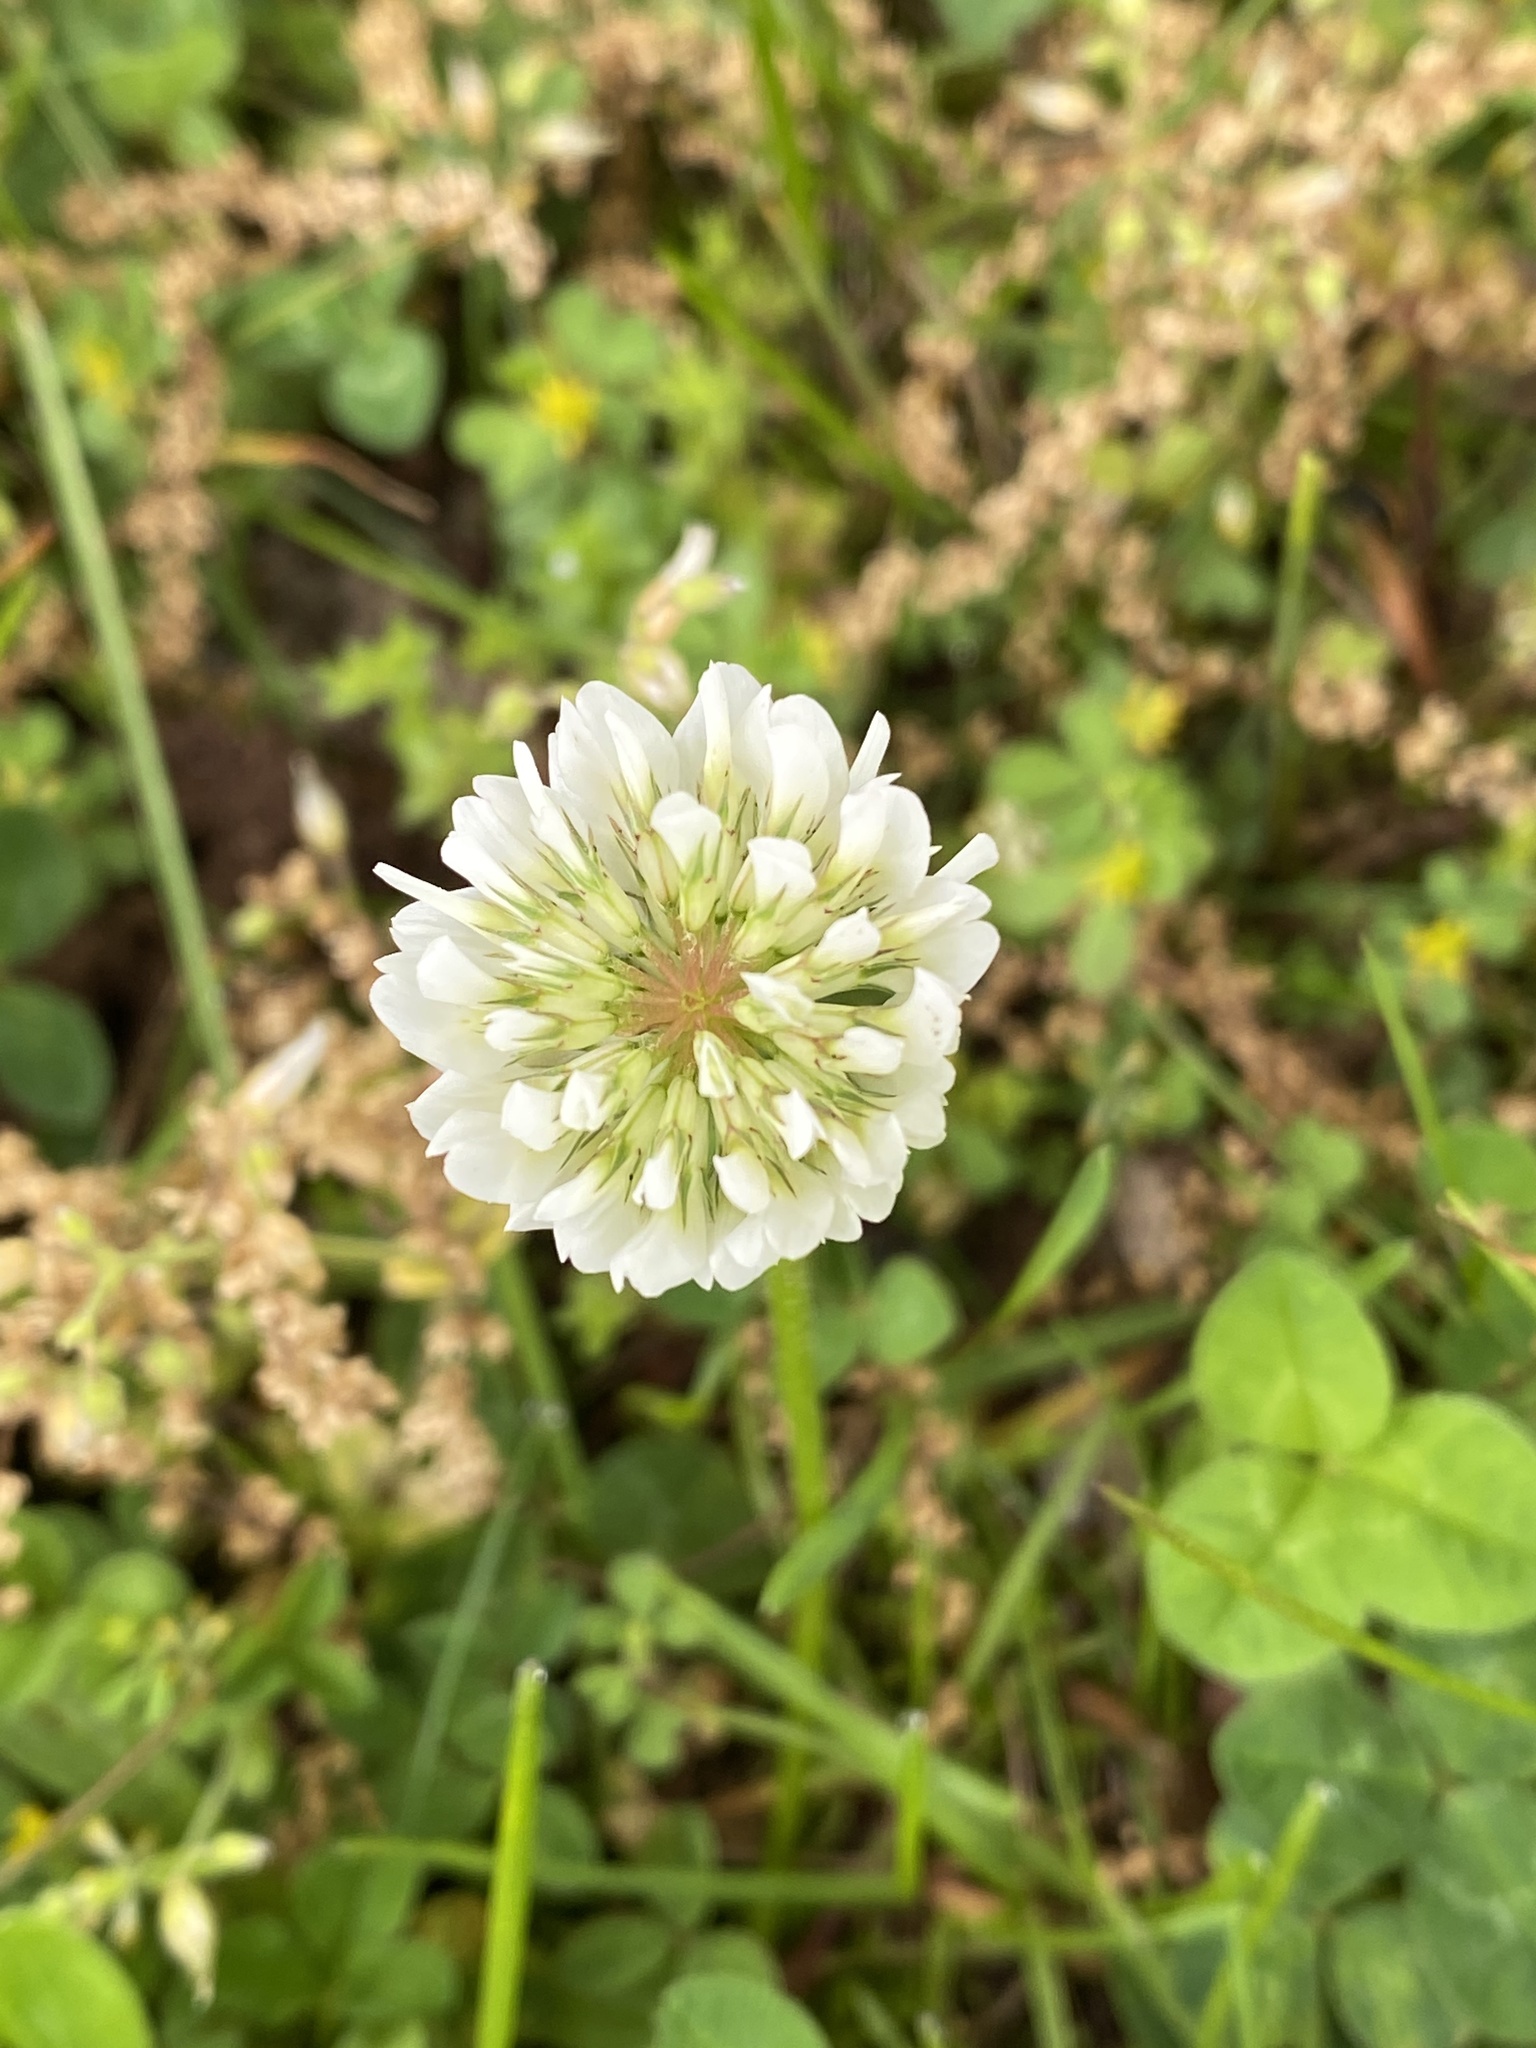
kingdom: Plantae
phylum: Tracheophyta
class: Magnoliopsida
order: Fabales
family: Fabaceae
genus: Trifolium
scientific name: Trifolium repens
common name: White clover
